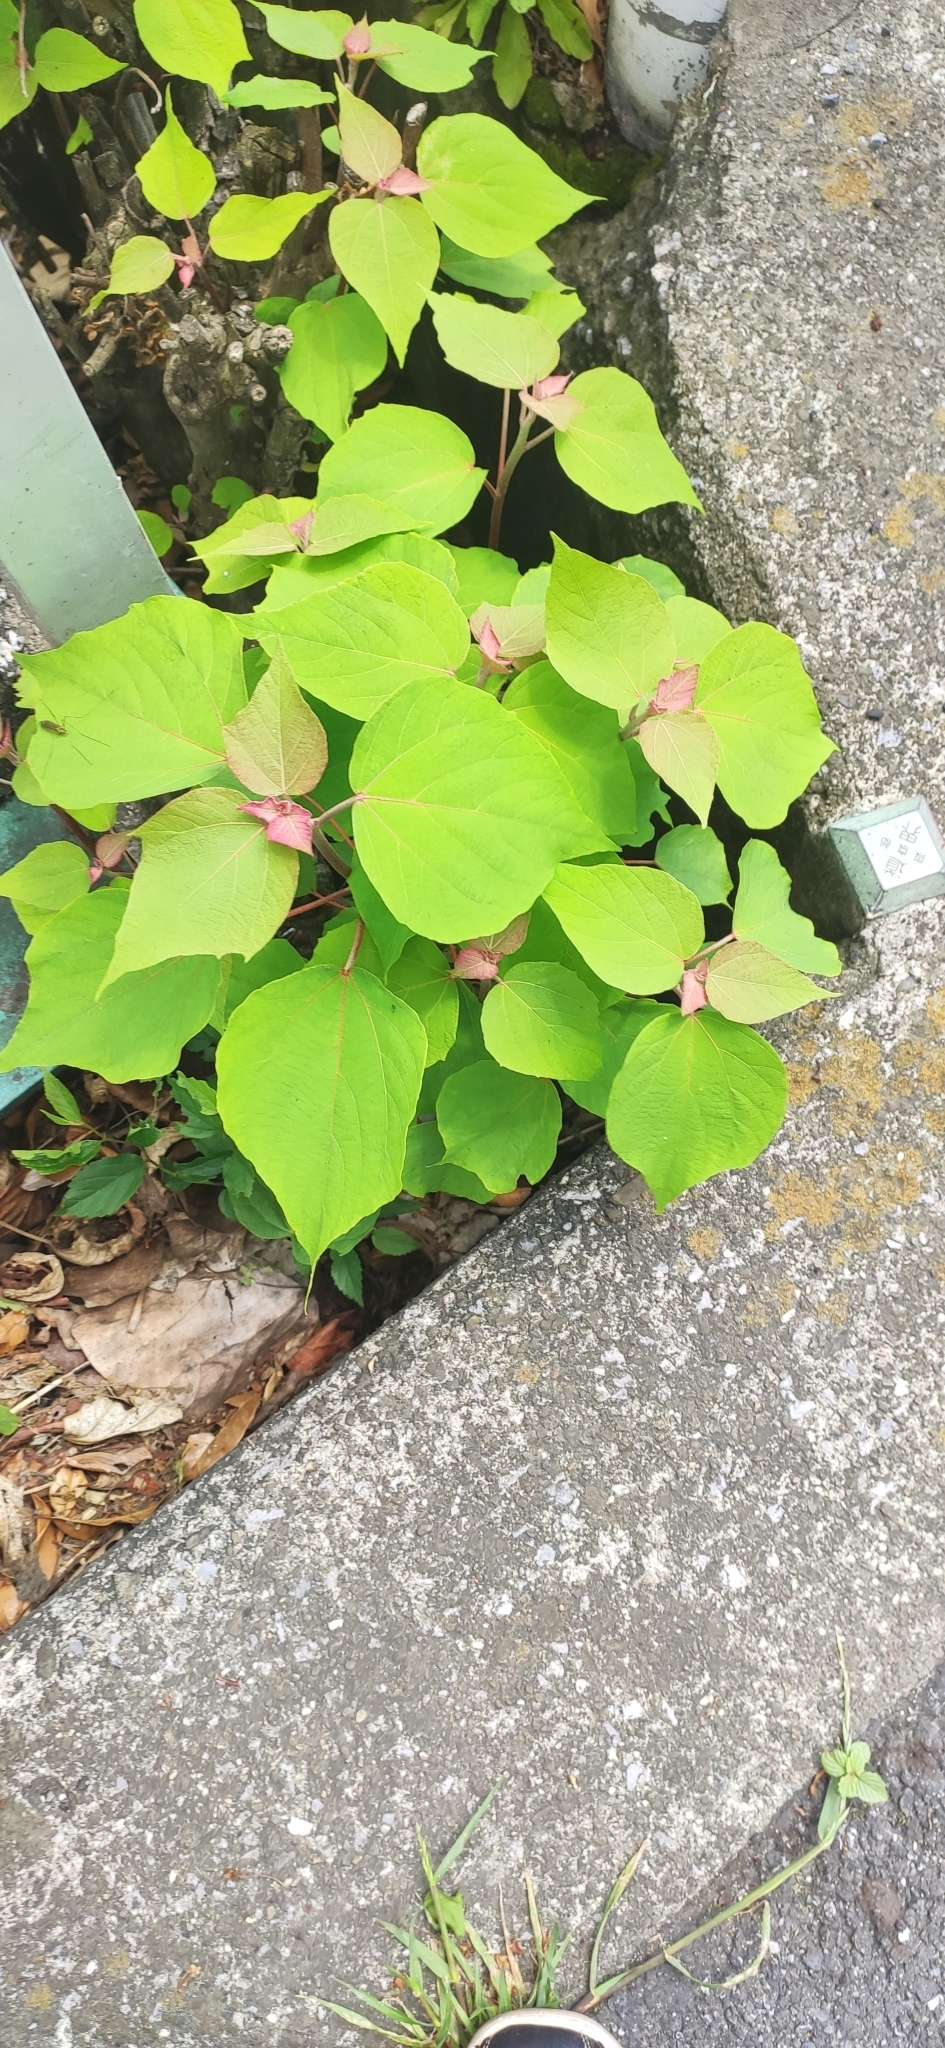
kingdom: Plantae
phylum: Tracheophyta
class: Magnoliopsida
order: Malpighiales
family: Euphorbiaceae
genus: Mallotus
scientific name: Mallotus japonicus
